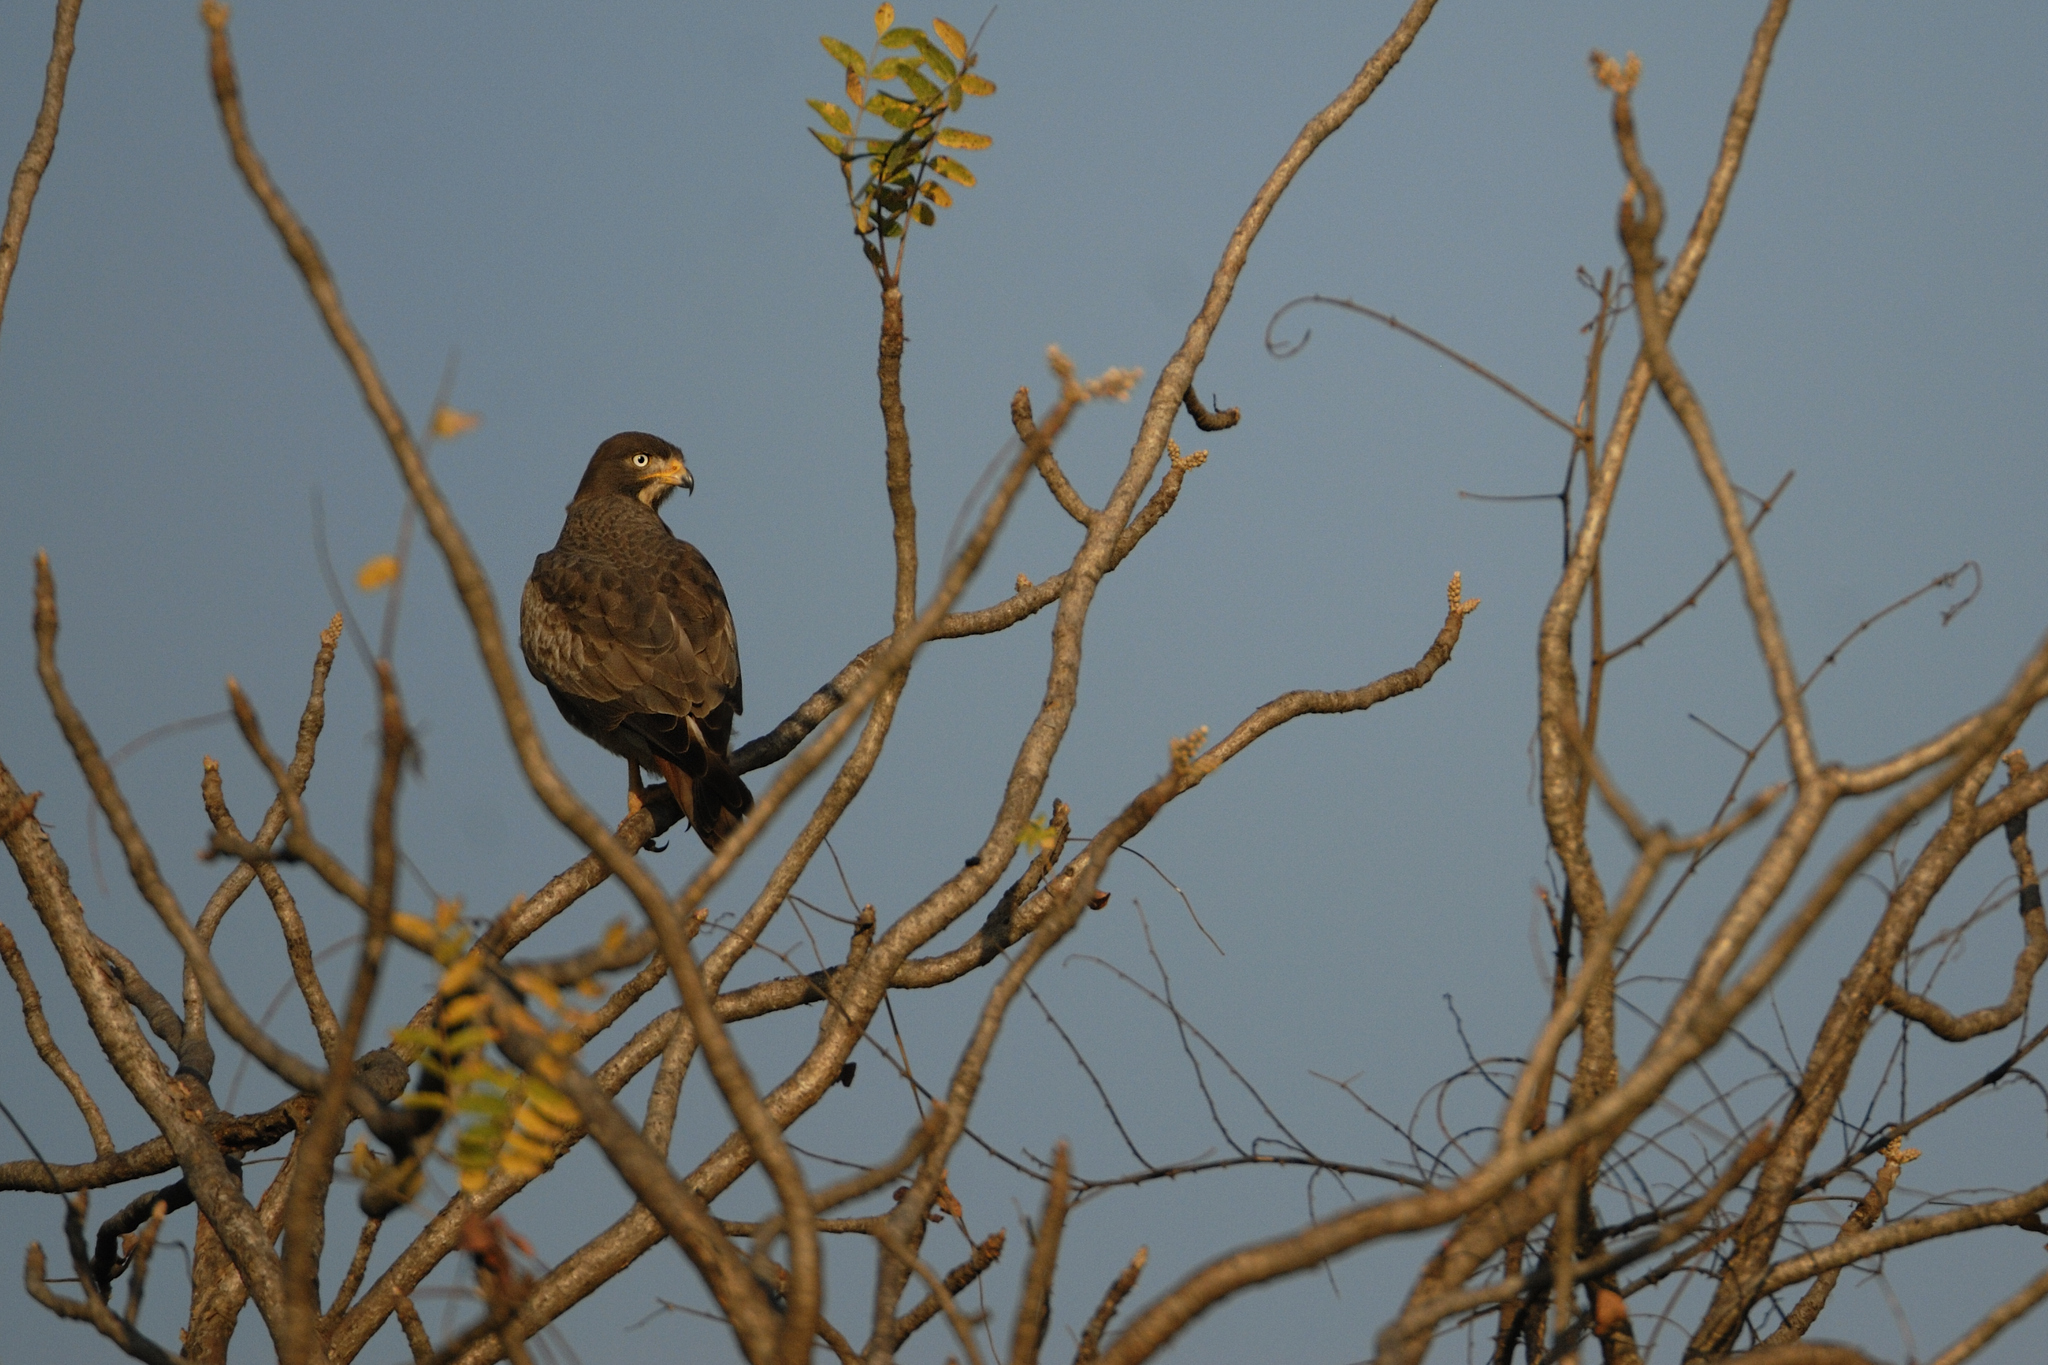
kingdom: Animalia
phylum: Chordata
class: Aves
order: Accipitriformes
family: Accipitridae
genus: Butastur
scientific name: Butastur teesa
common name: White-eyed buzzard
